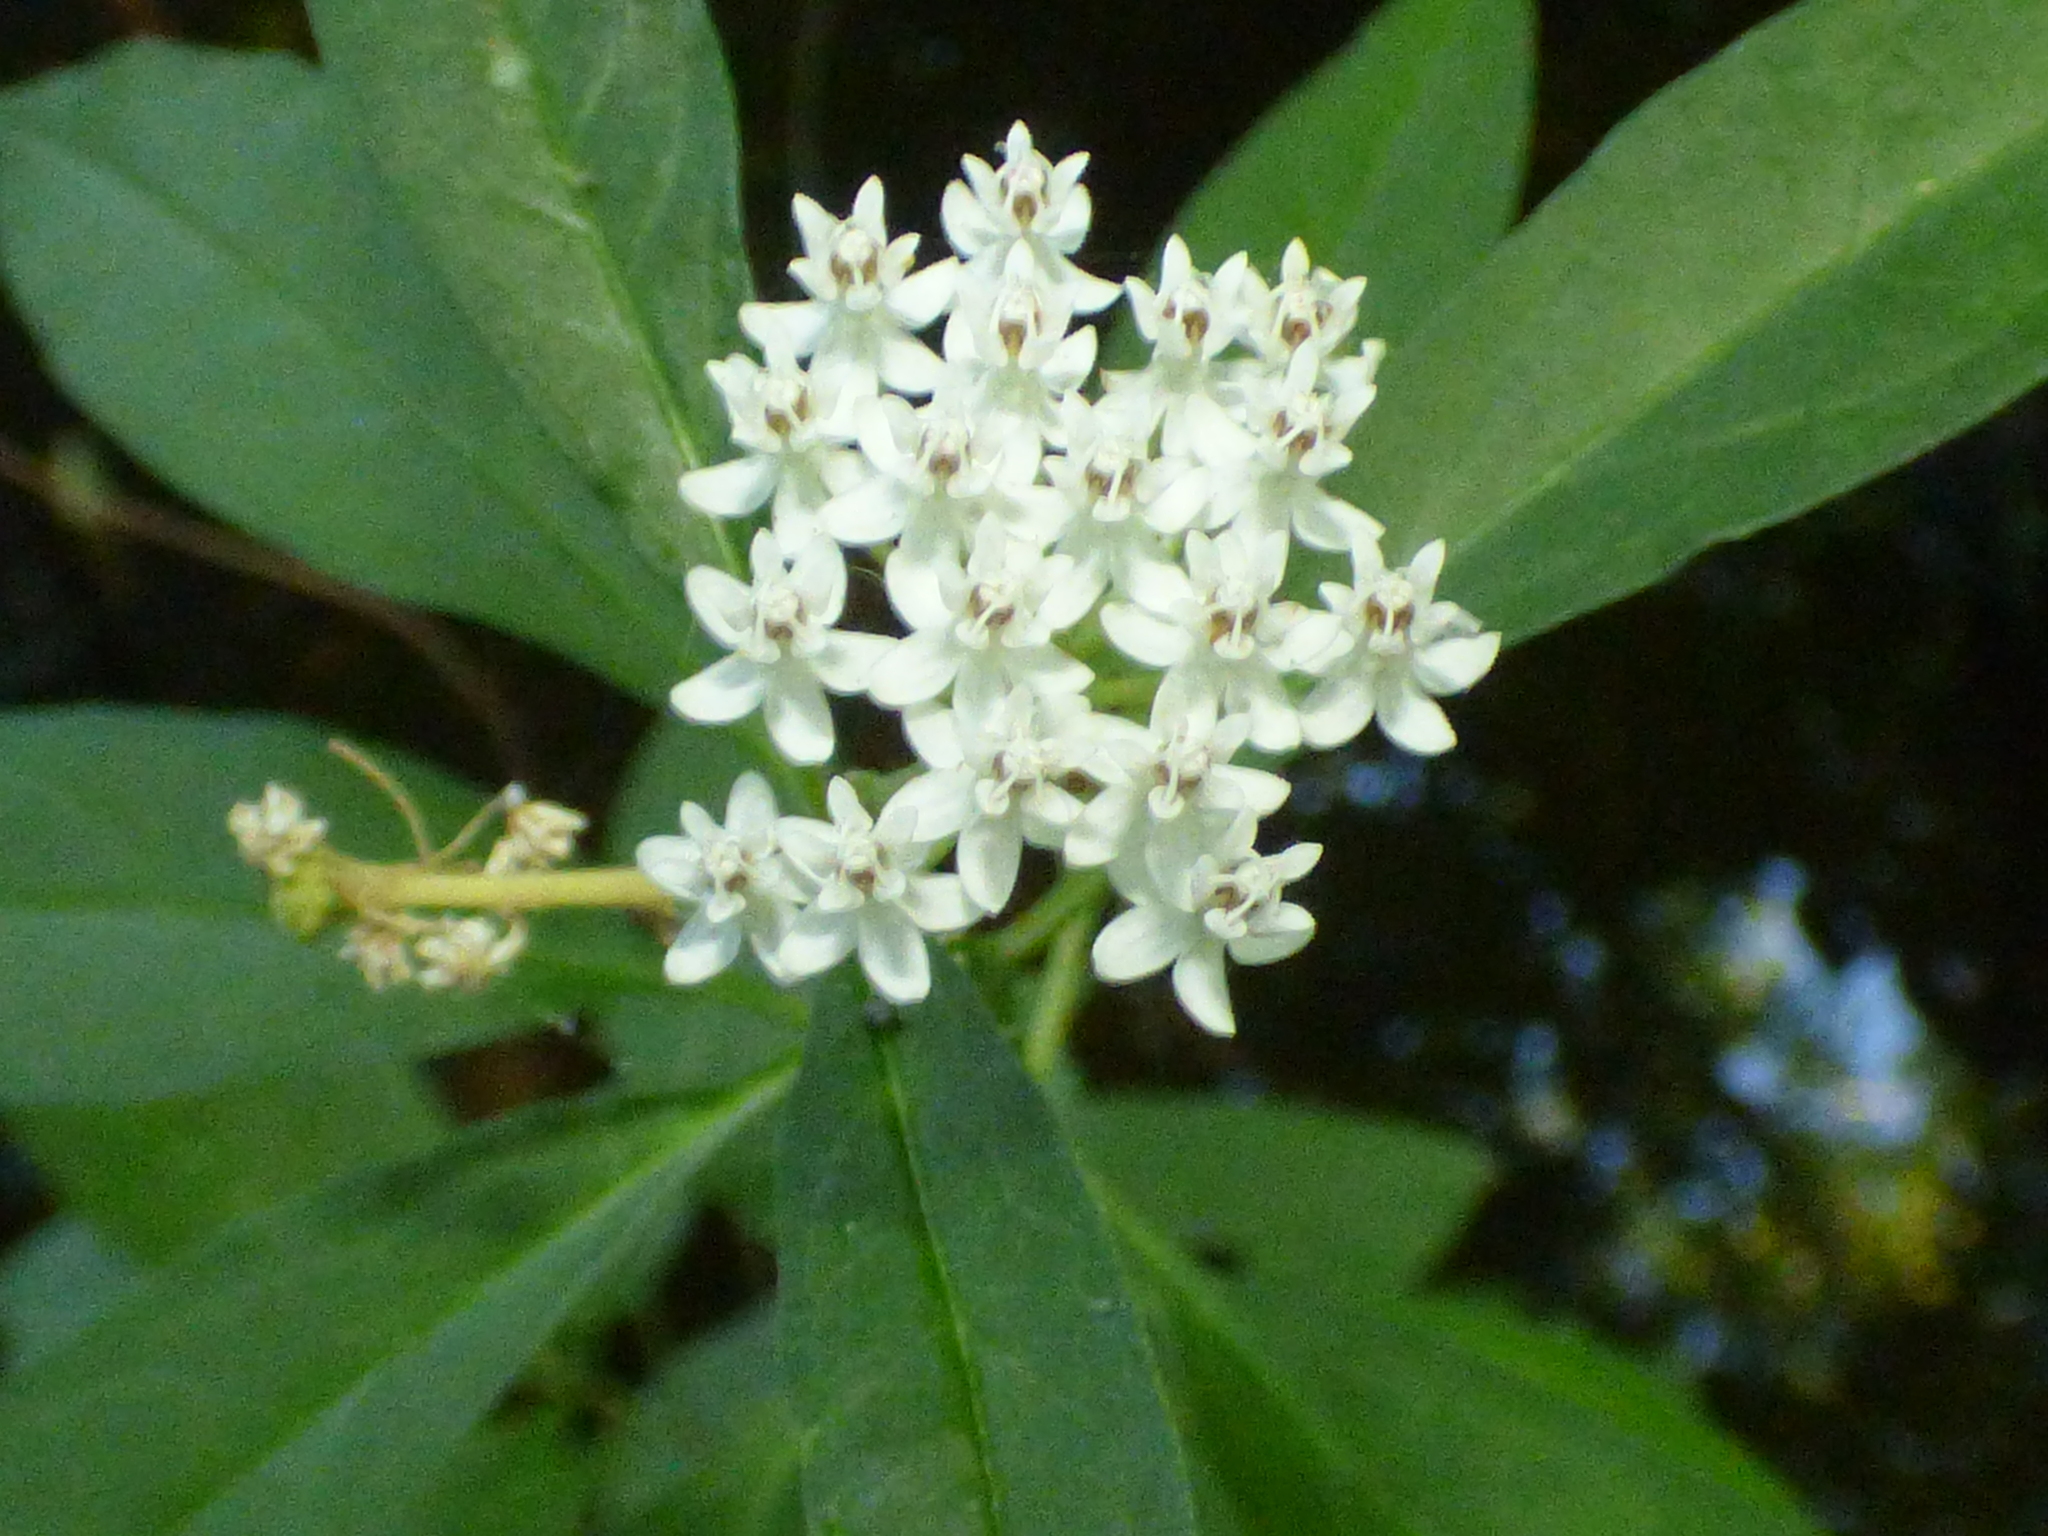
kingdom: Plantae
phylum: Tracheophyta
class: Magnoliopsida
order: Gentianales
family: Apocynaceae
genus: Asclepias
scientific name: Asclepias perennis
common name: Smooth-seed milkweed
